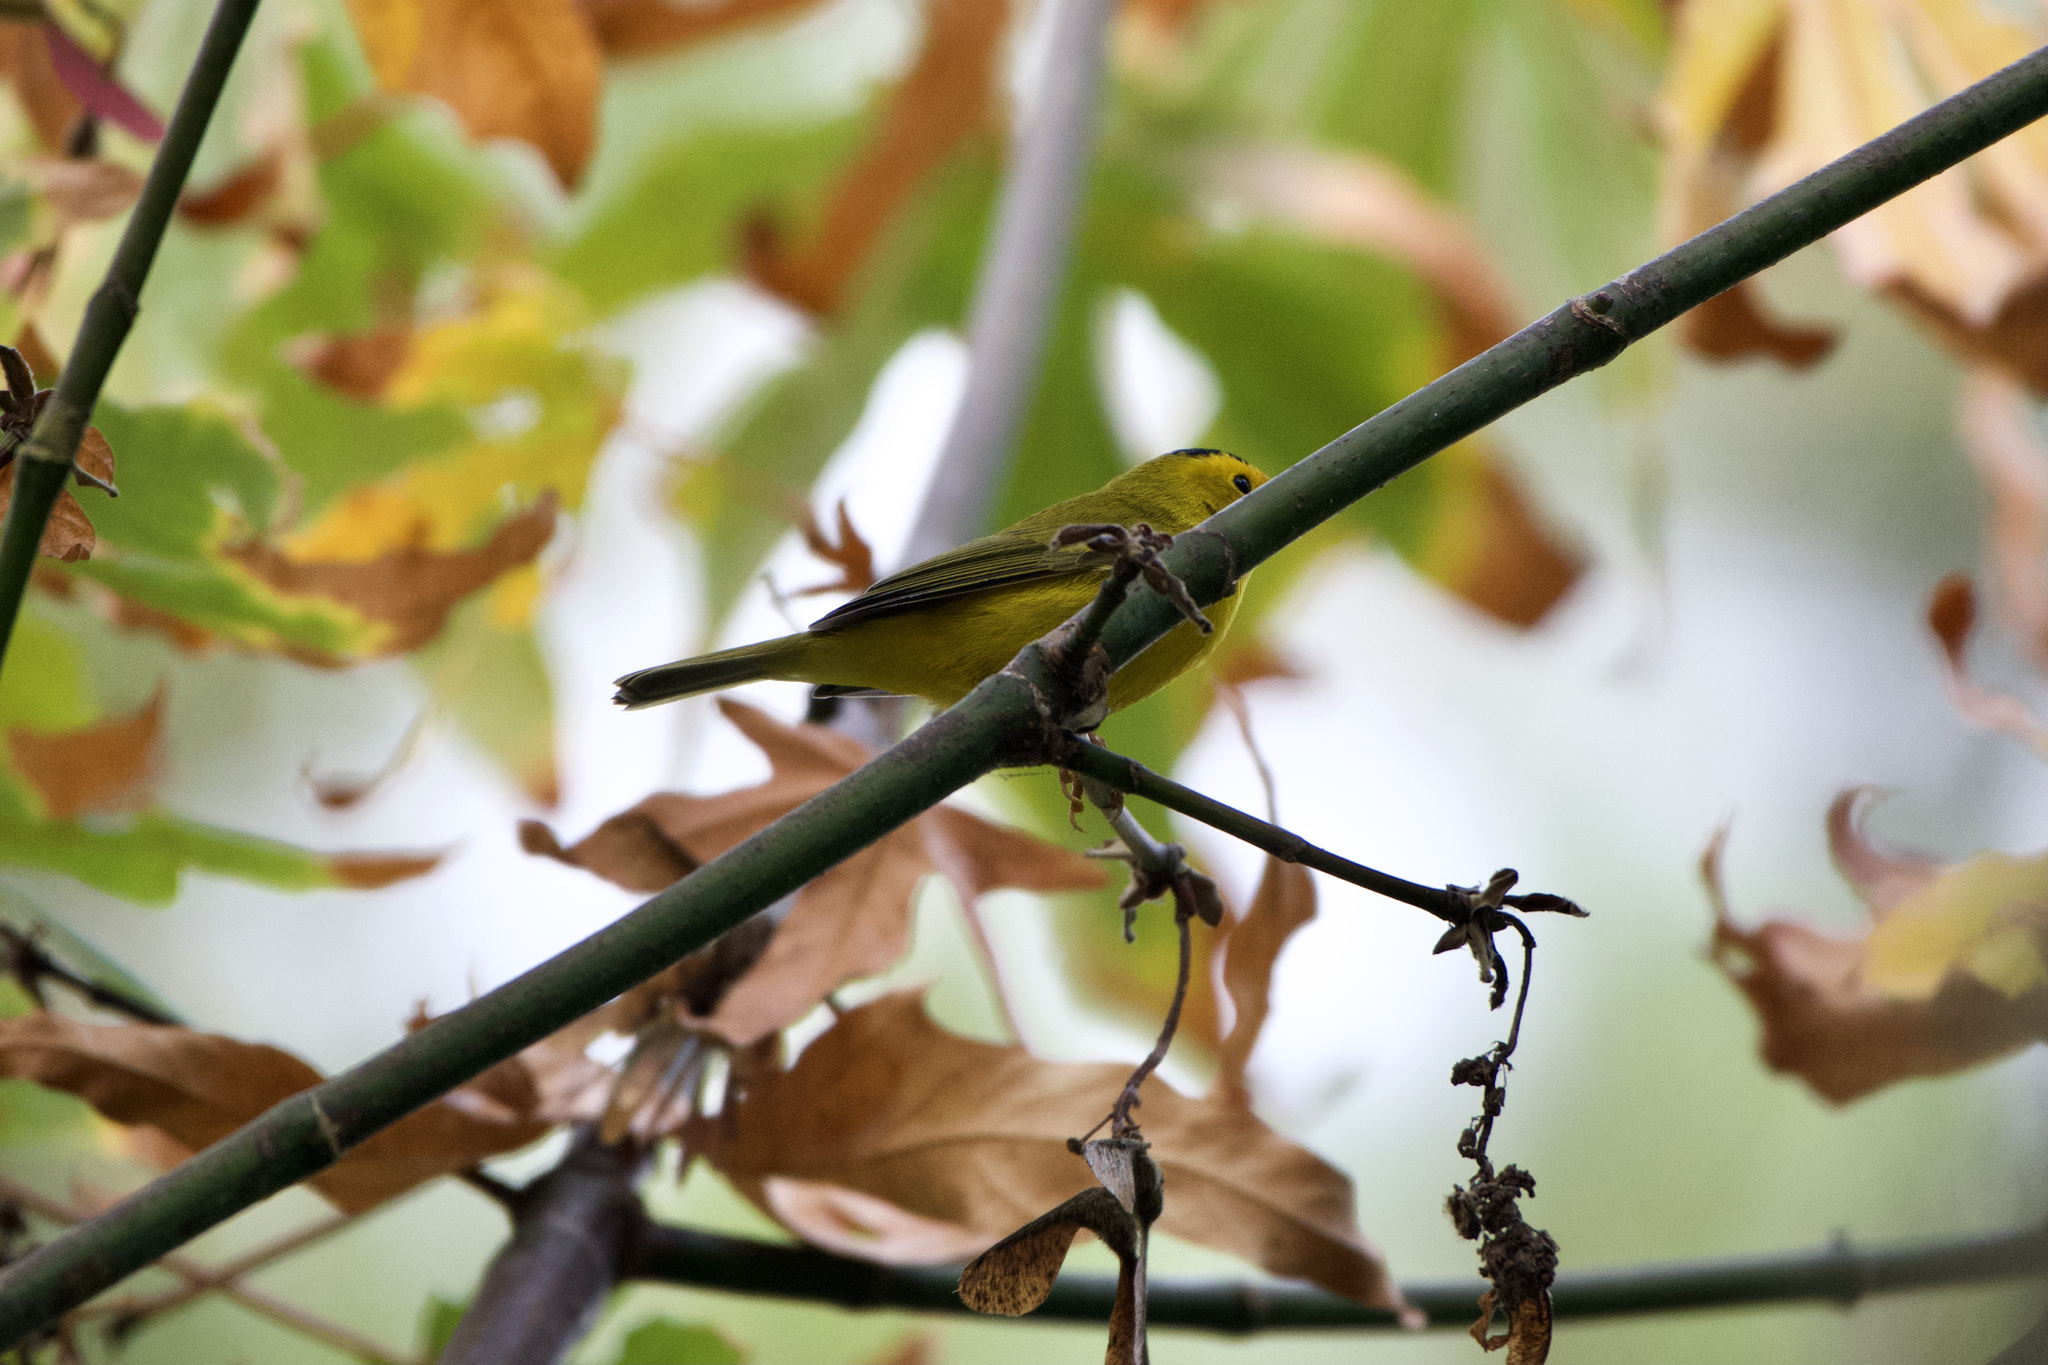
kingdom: Animalia
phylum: Chordata
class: Aves
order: Passeriformes
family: Parulidae
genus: Cardellina
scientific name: Cardellina pusilla
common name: Wilson's warbler
